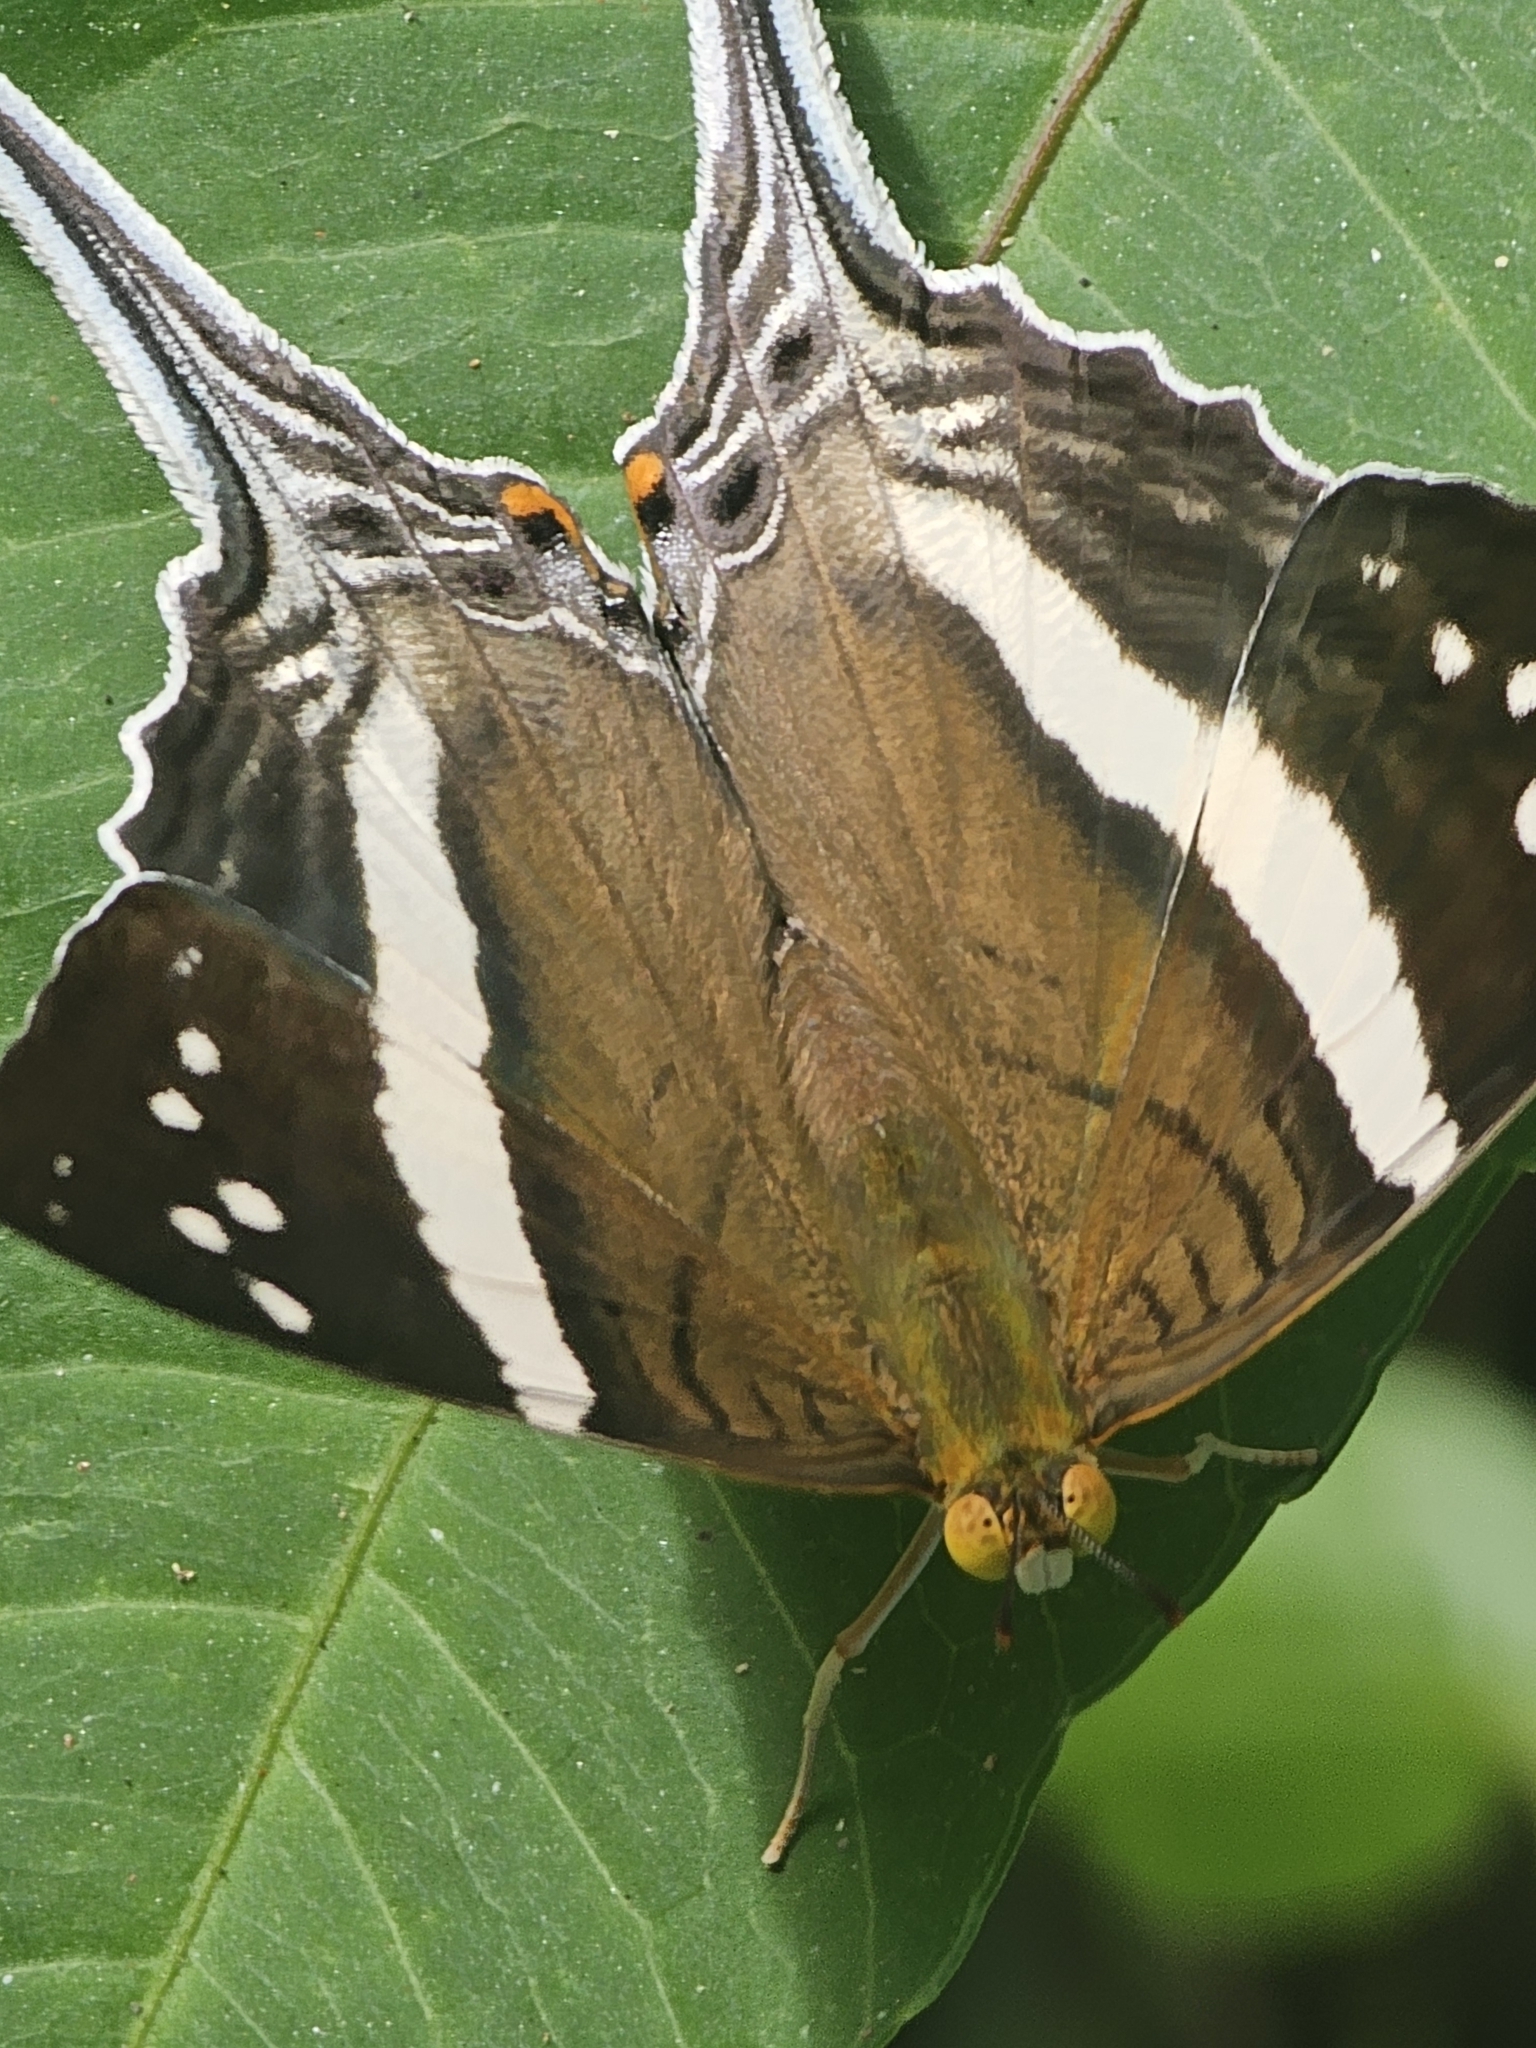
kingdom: Animalia
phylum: Arthropoda
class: Insecta
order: Lepidoptera
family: Nymphalidae
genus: Marpesia
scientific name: Marpesia crethon
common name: Crethon daggerwing
